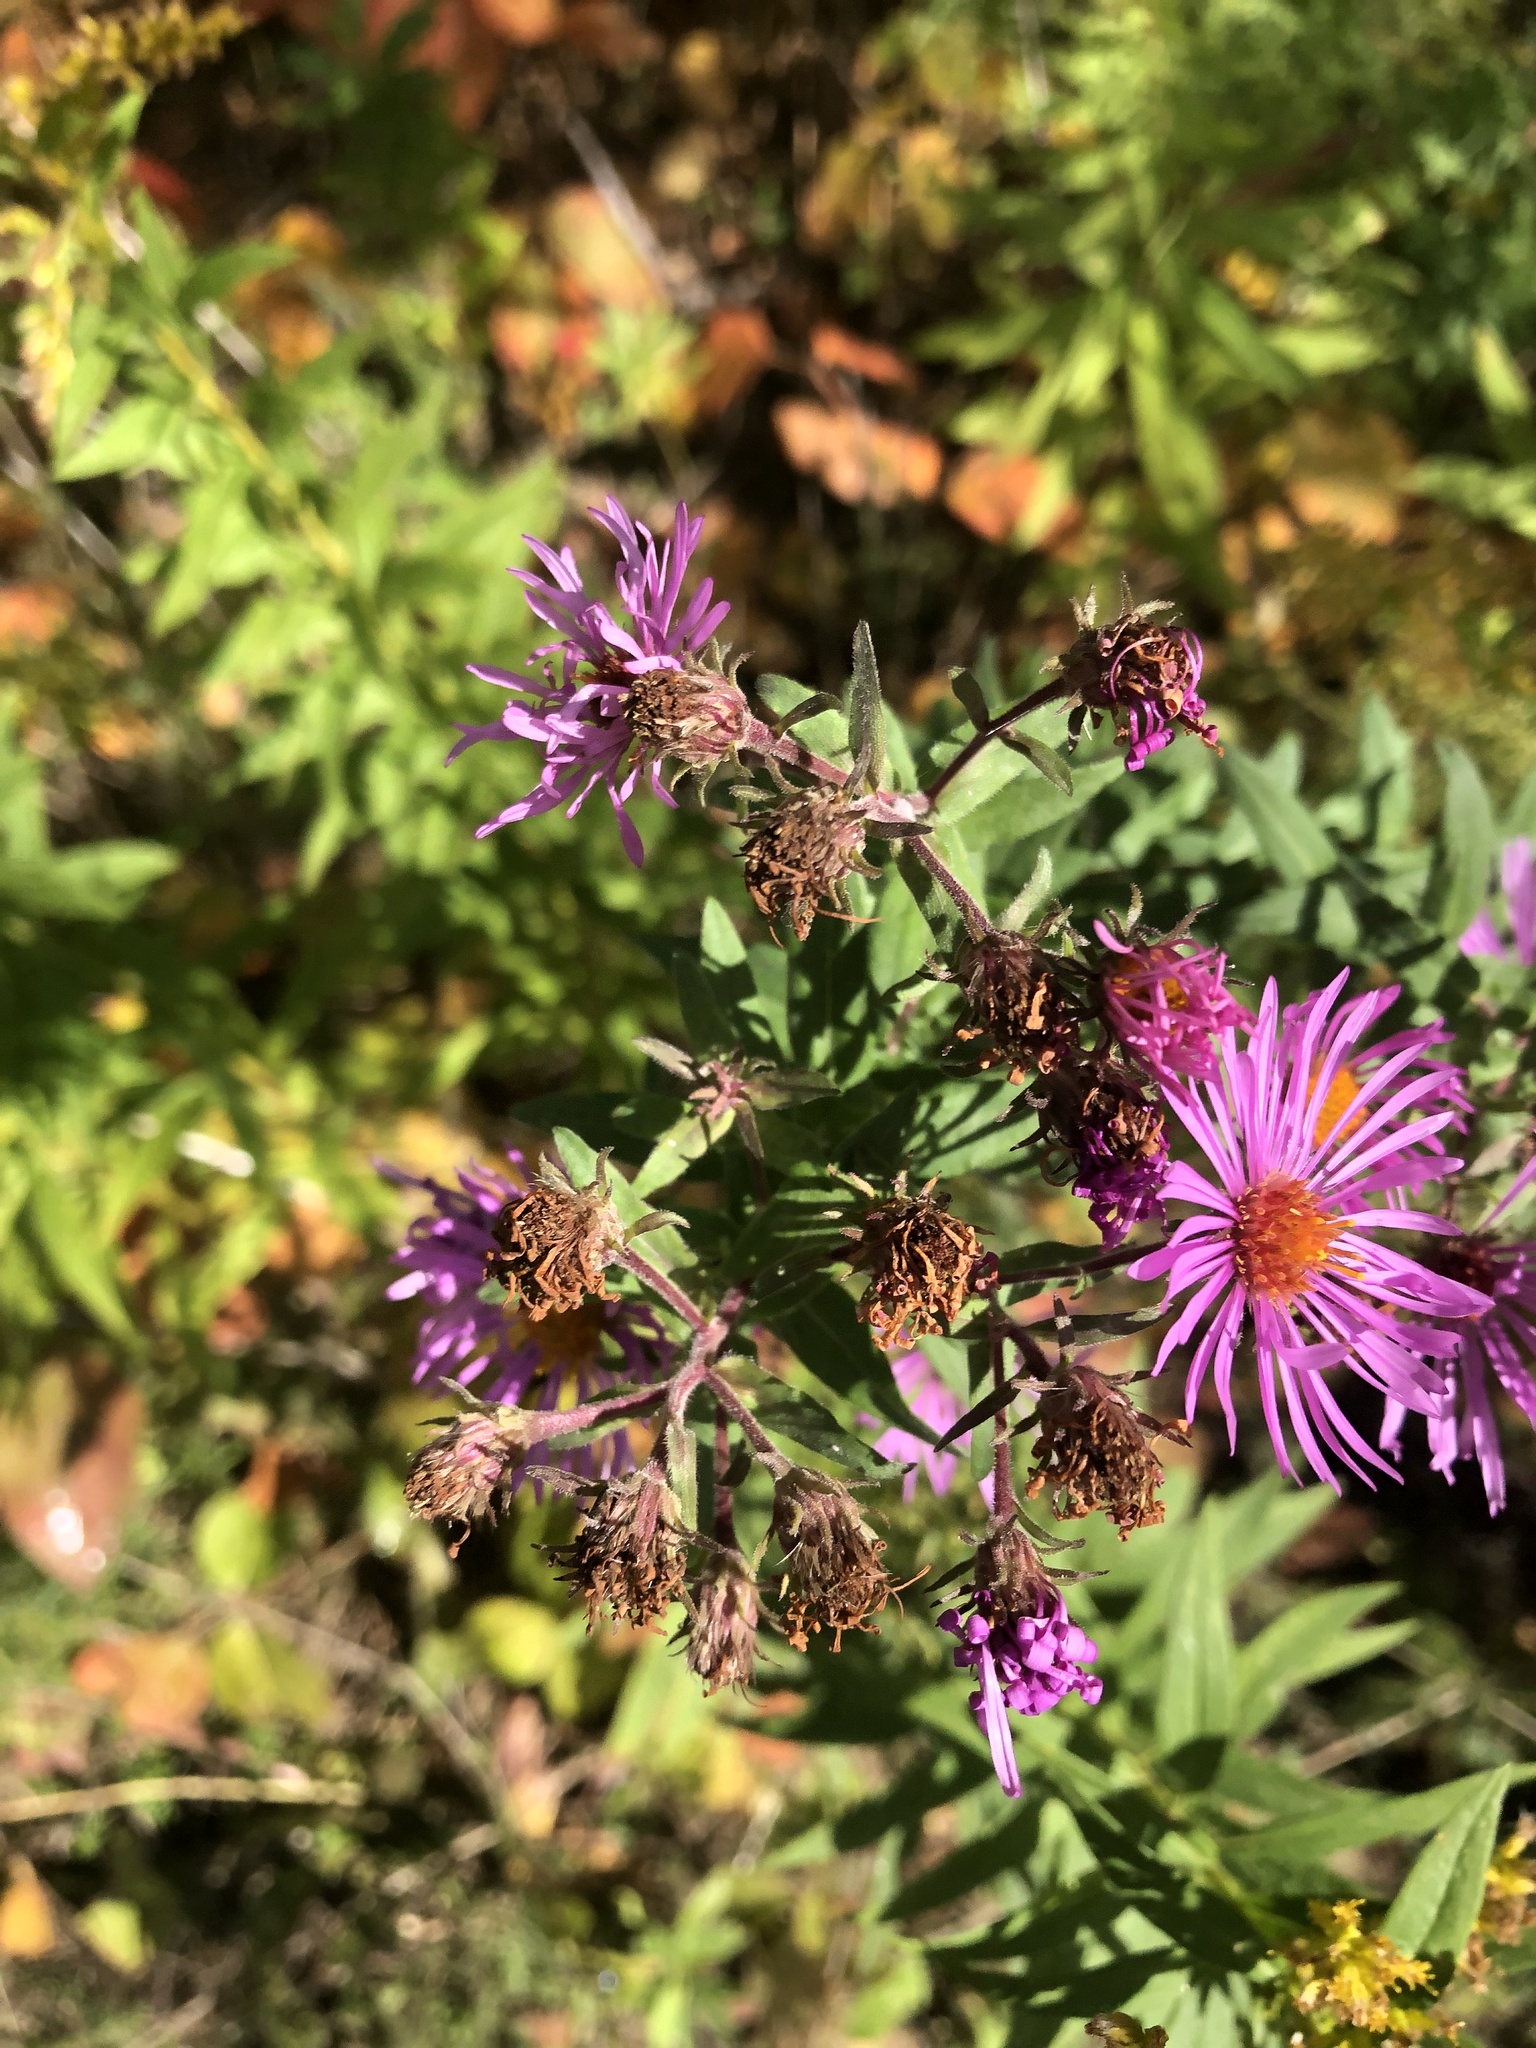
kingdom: Plantae
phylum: Tracheophyta
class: Magnoliopsida
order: Asterales
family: Asteraceae
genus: Symphyotrichum
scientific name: Symphyotrichum novae-angliae
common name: Michaelmas daisy
